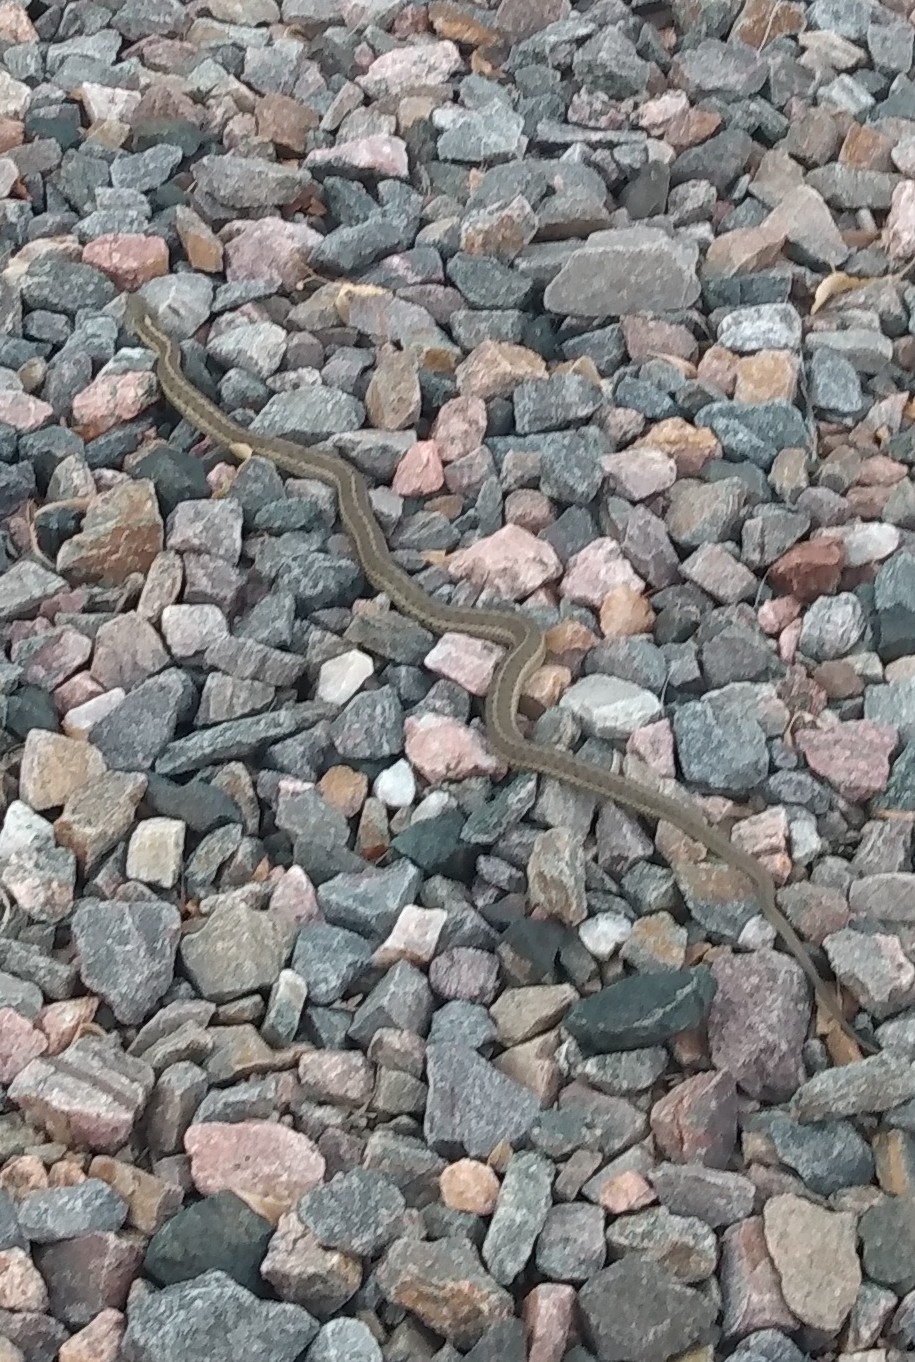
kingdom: Animalia
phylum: Chordata
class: Squamata
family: Colubridae
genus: Thamnophis
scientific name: Thamnophis elegans
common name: Western terrestrial garter snake
